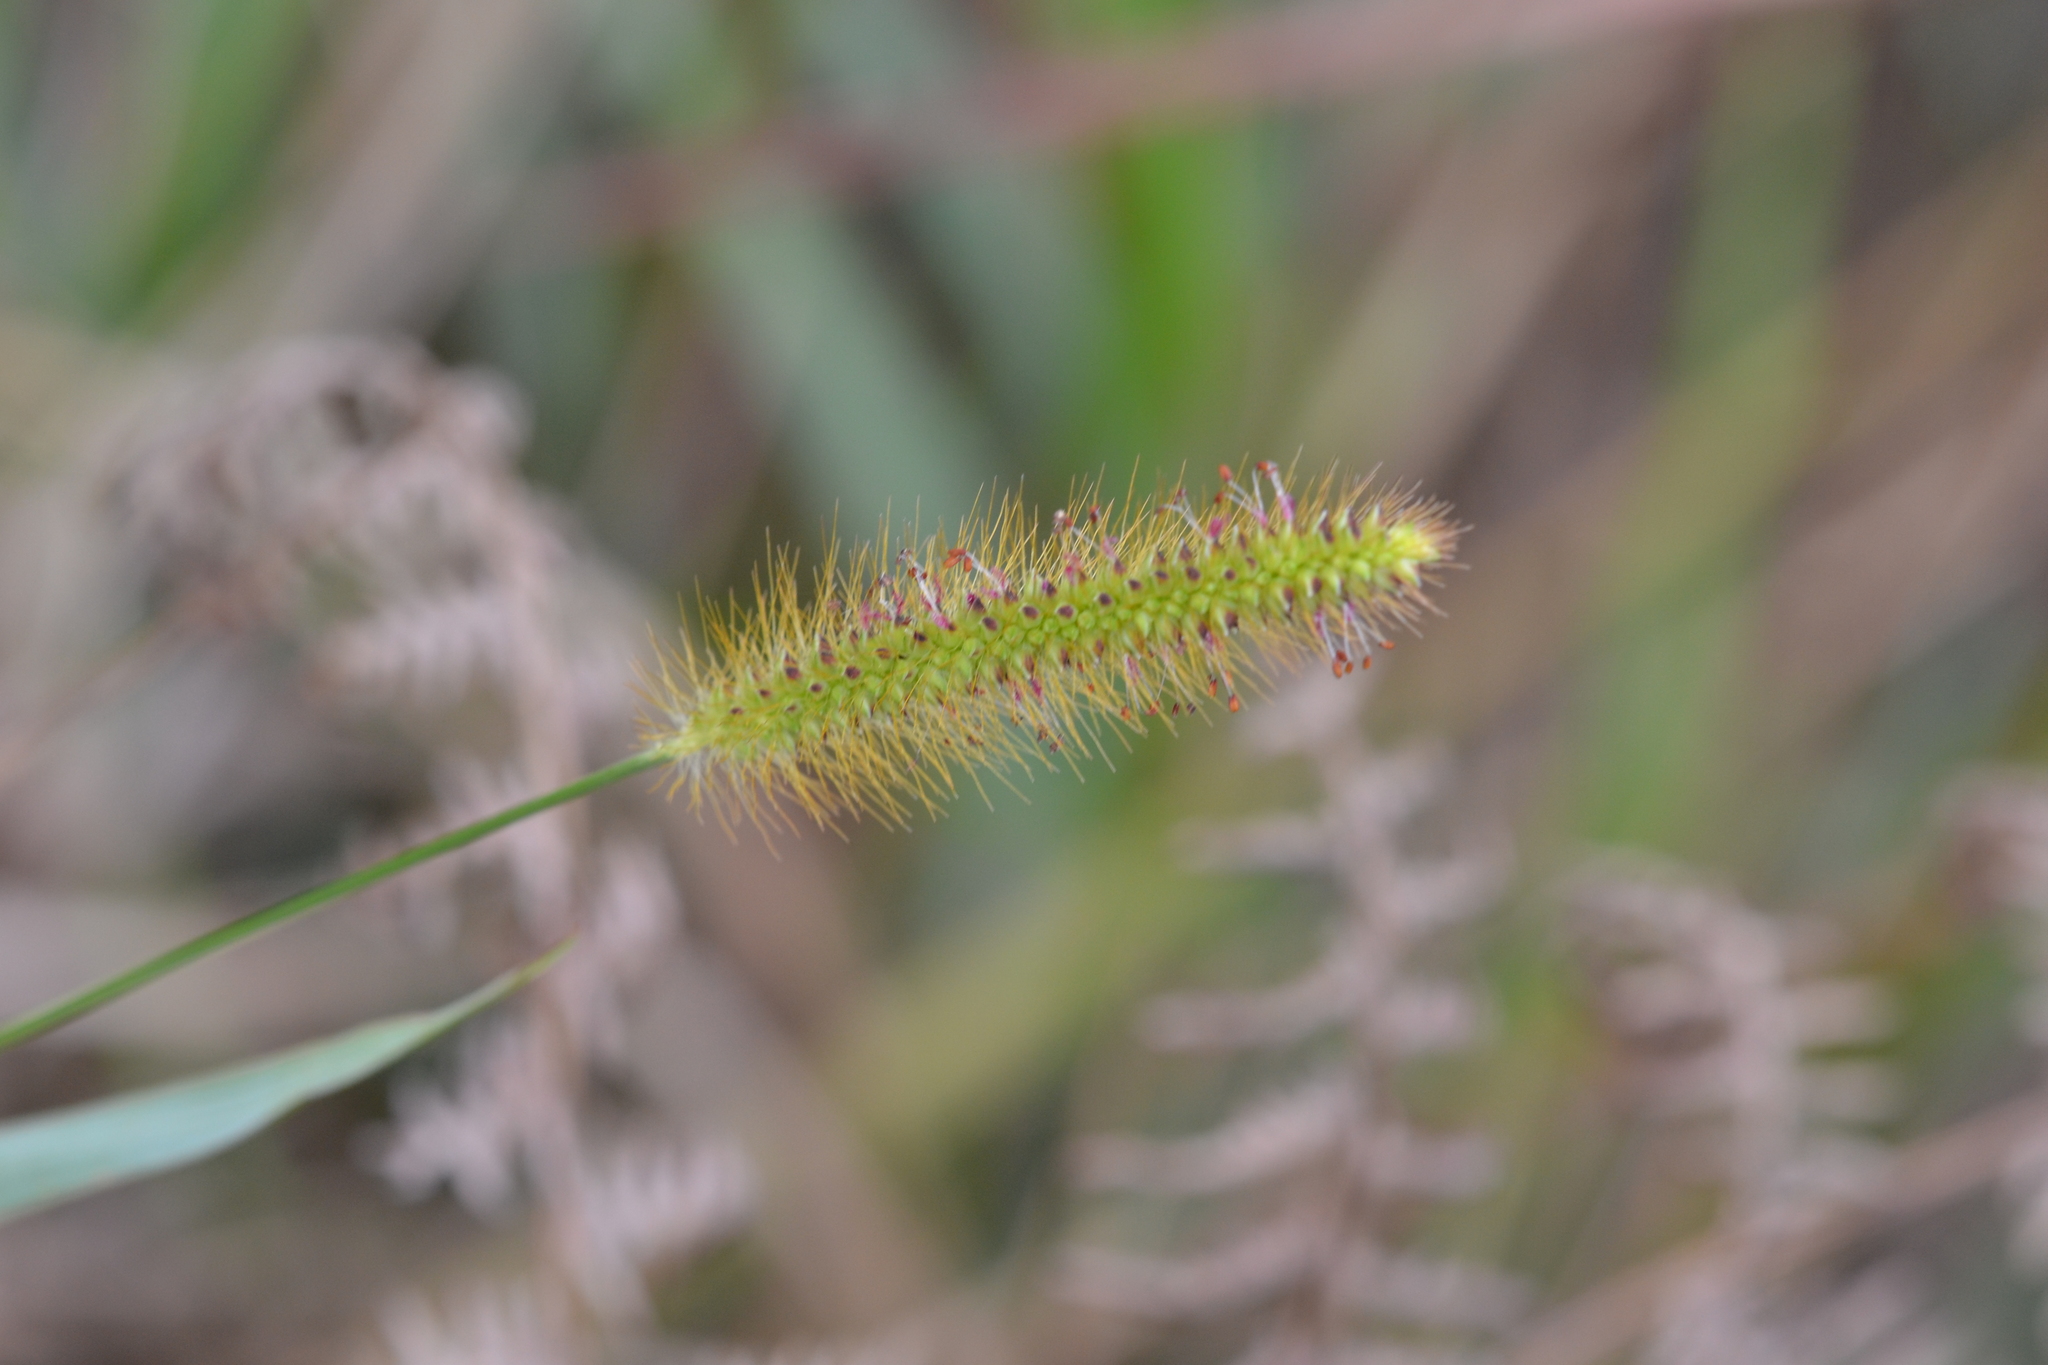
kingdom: Plantae
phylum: Tracheophyta
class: Liliopsida
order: Poales
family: Poaceae
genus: Setaria
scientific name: Setaria parviflora
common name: Knotroot bristle-grass
